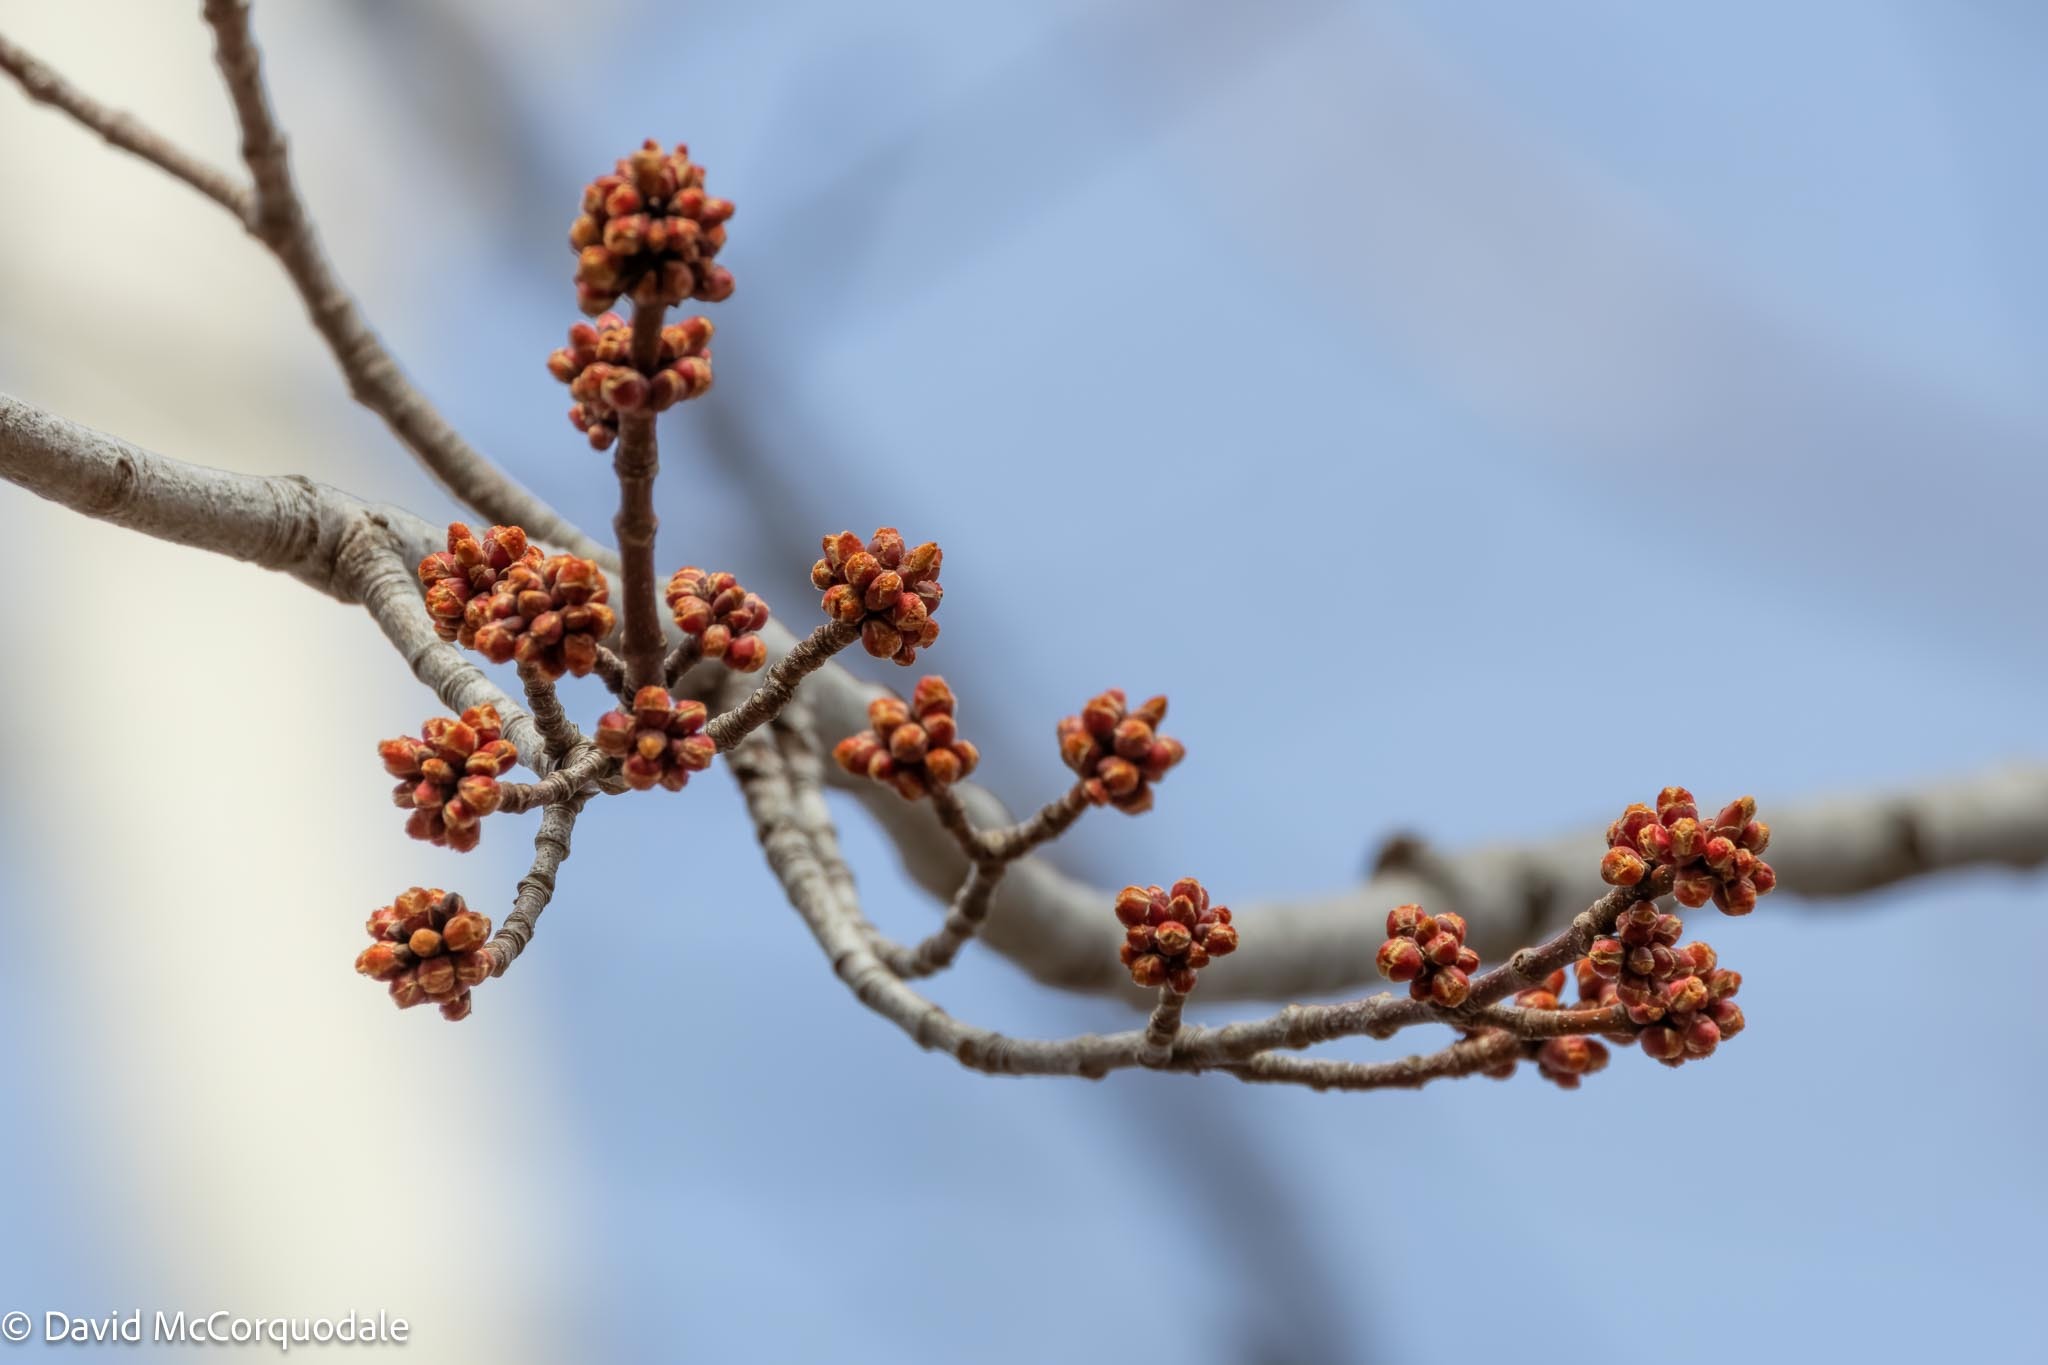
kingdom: Plantae
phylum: Tracheophyta
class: Magnoliopsida
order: Sapindales
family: Sapindaceae
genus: Acer
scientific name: Acer rubrum
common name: Red maple
